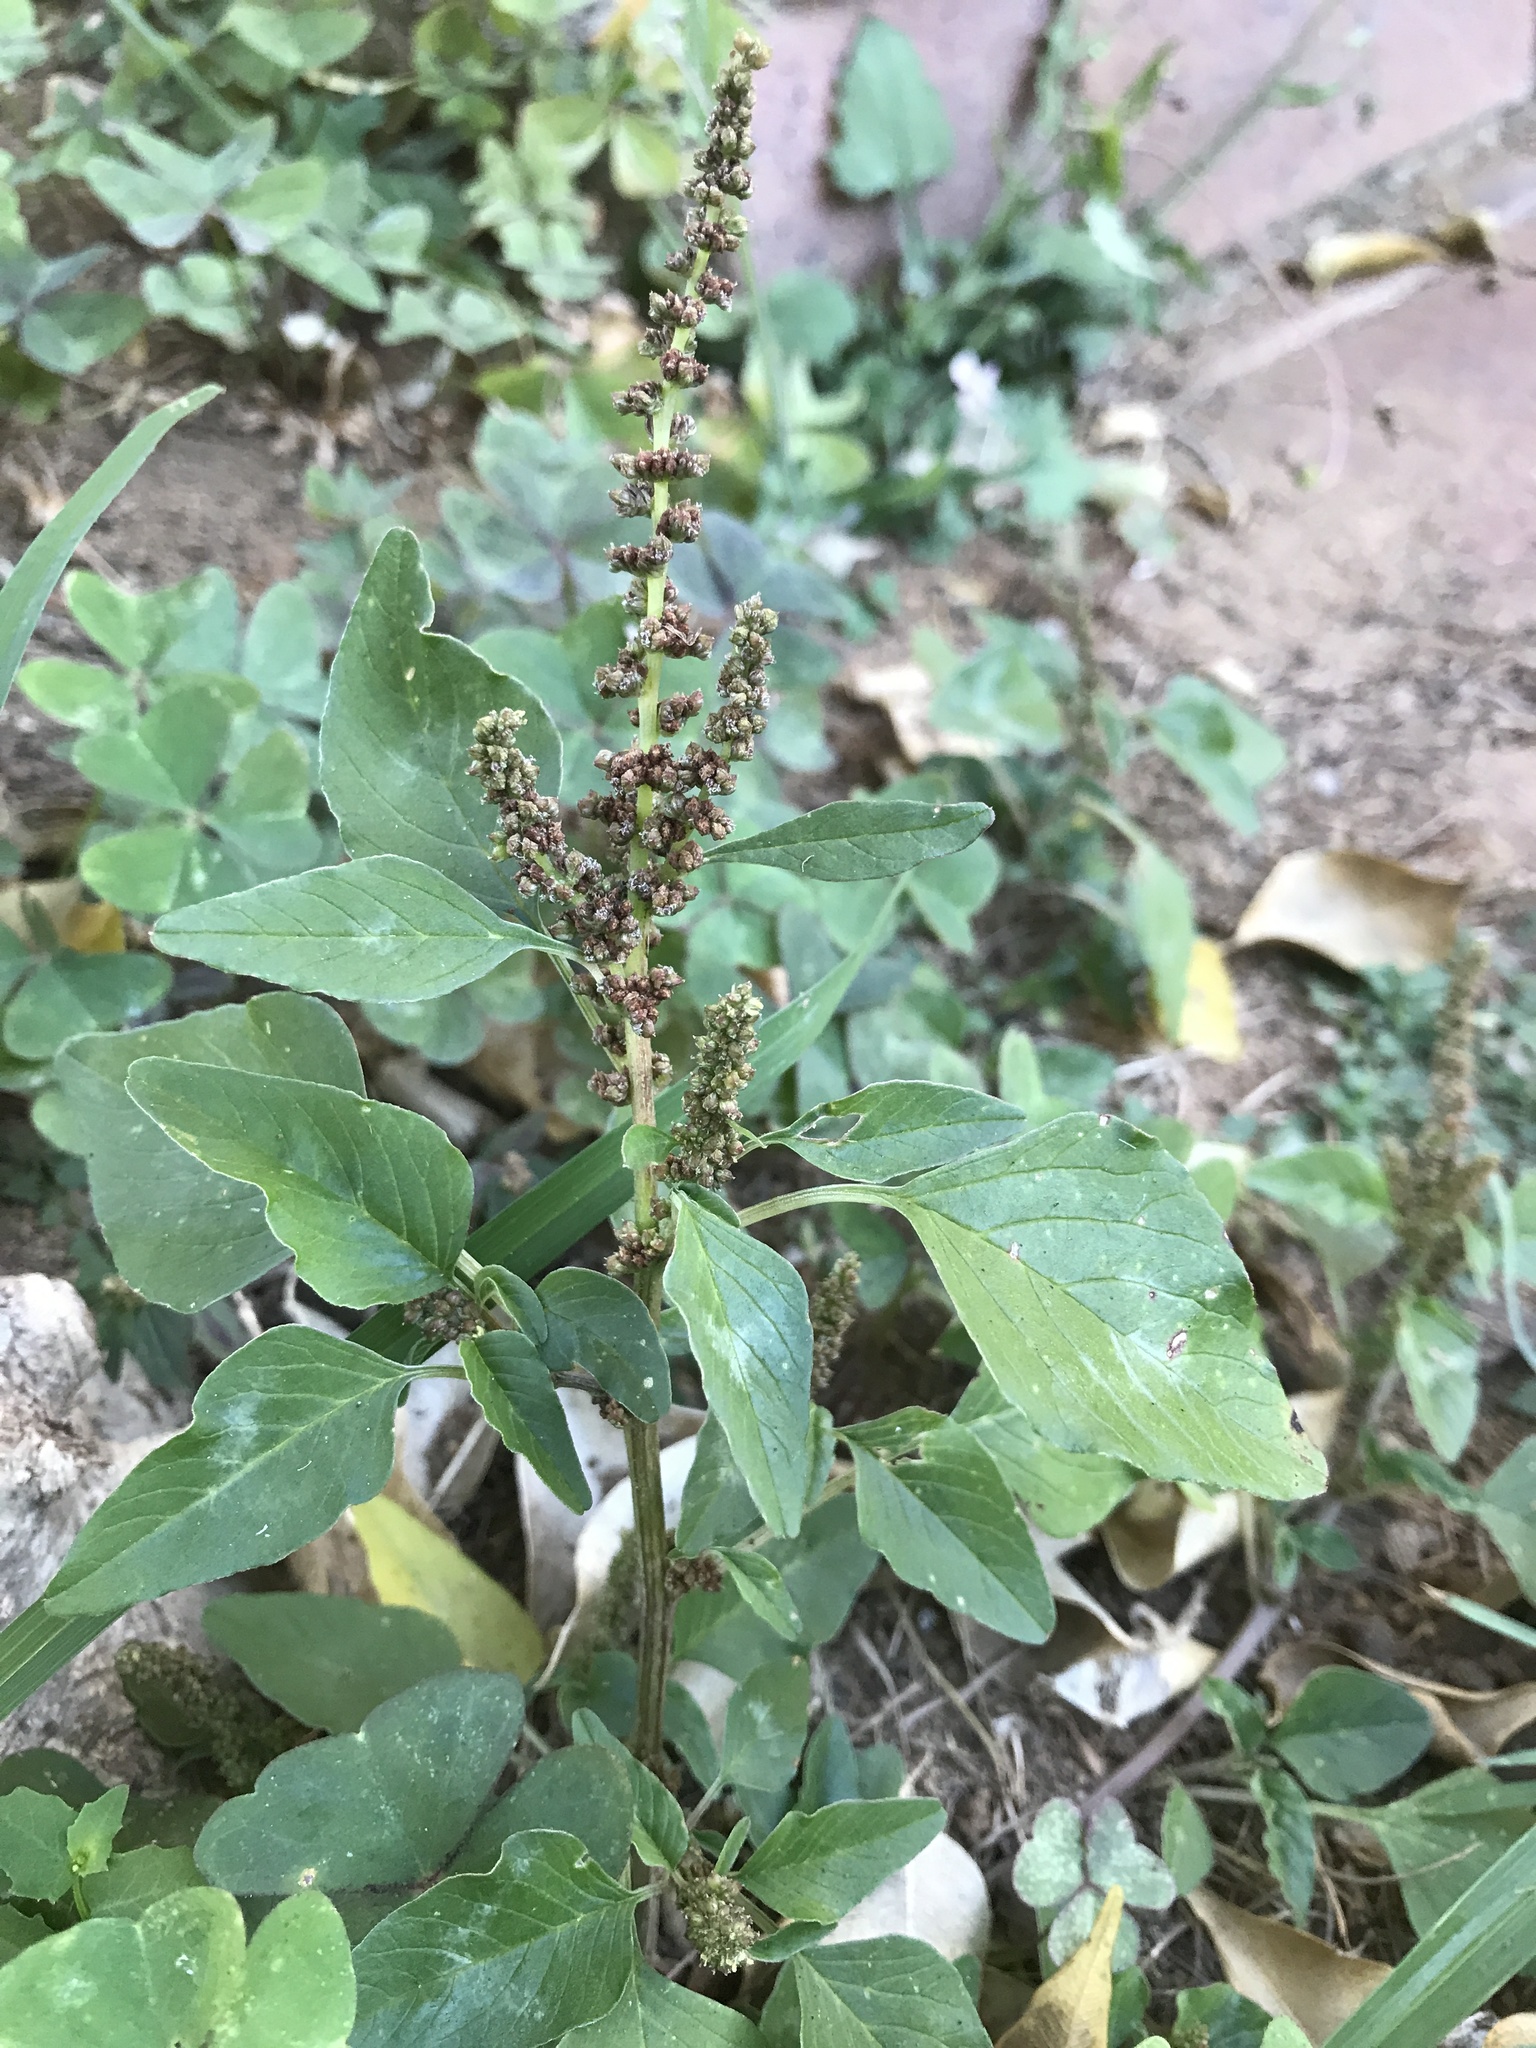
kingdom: Plantae
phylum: Tracheophyta
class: Magnoliopsida
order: Caryophyllales
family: Amaranthaceae
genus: Amaranthus
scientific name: Amaranthus viridis
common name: Slender amaranth
